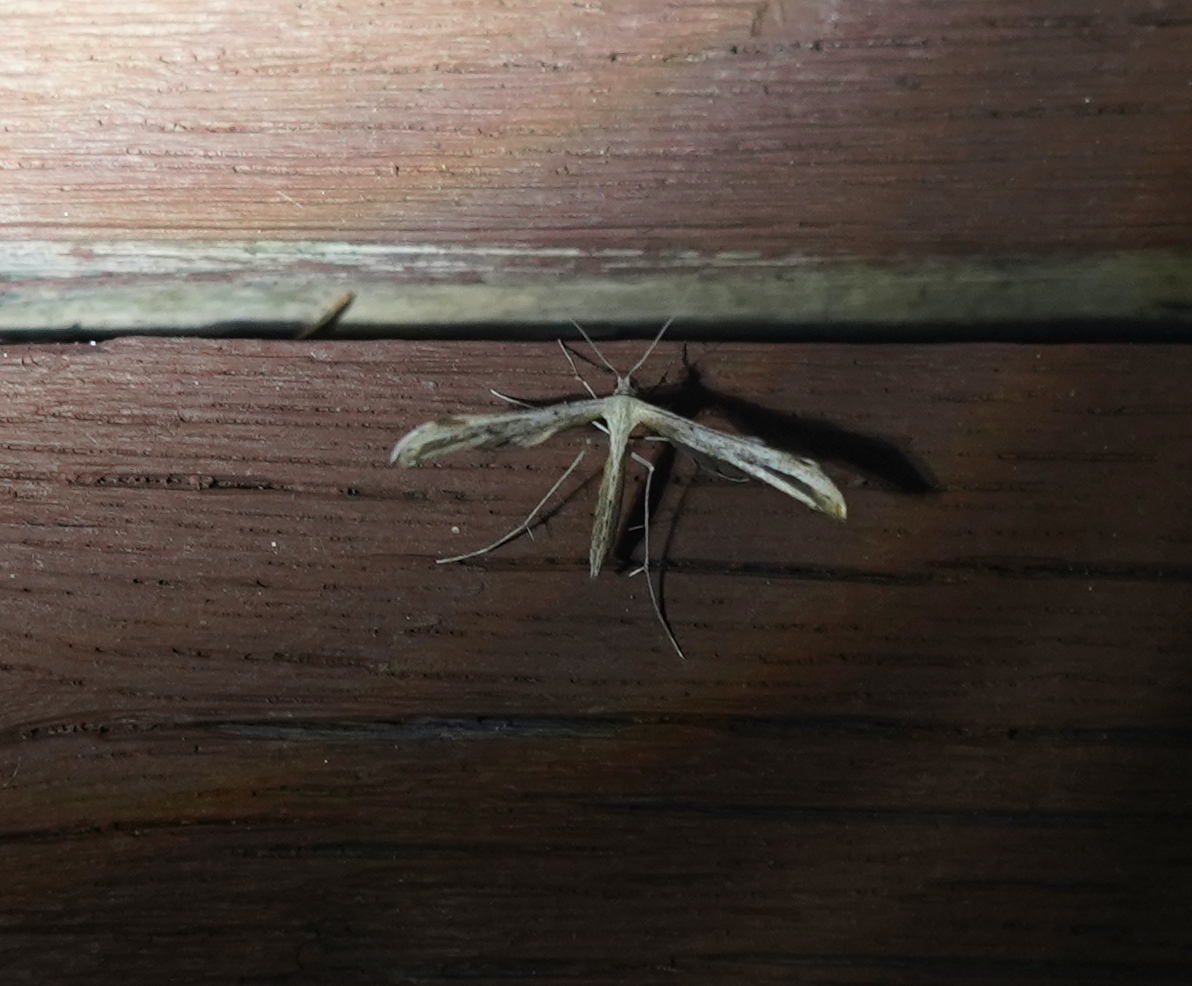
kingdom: Animalia
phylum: Arthropoda
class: Insecta
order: Lepidoptera
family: Pterophoridae
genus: Emmelina
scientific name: Emmelina monodactyla
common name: Common plume
